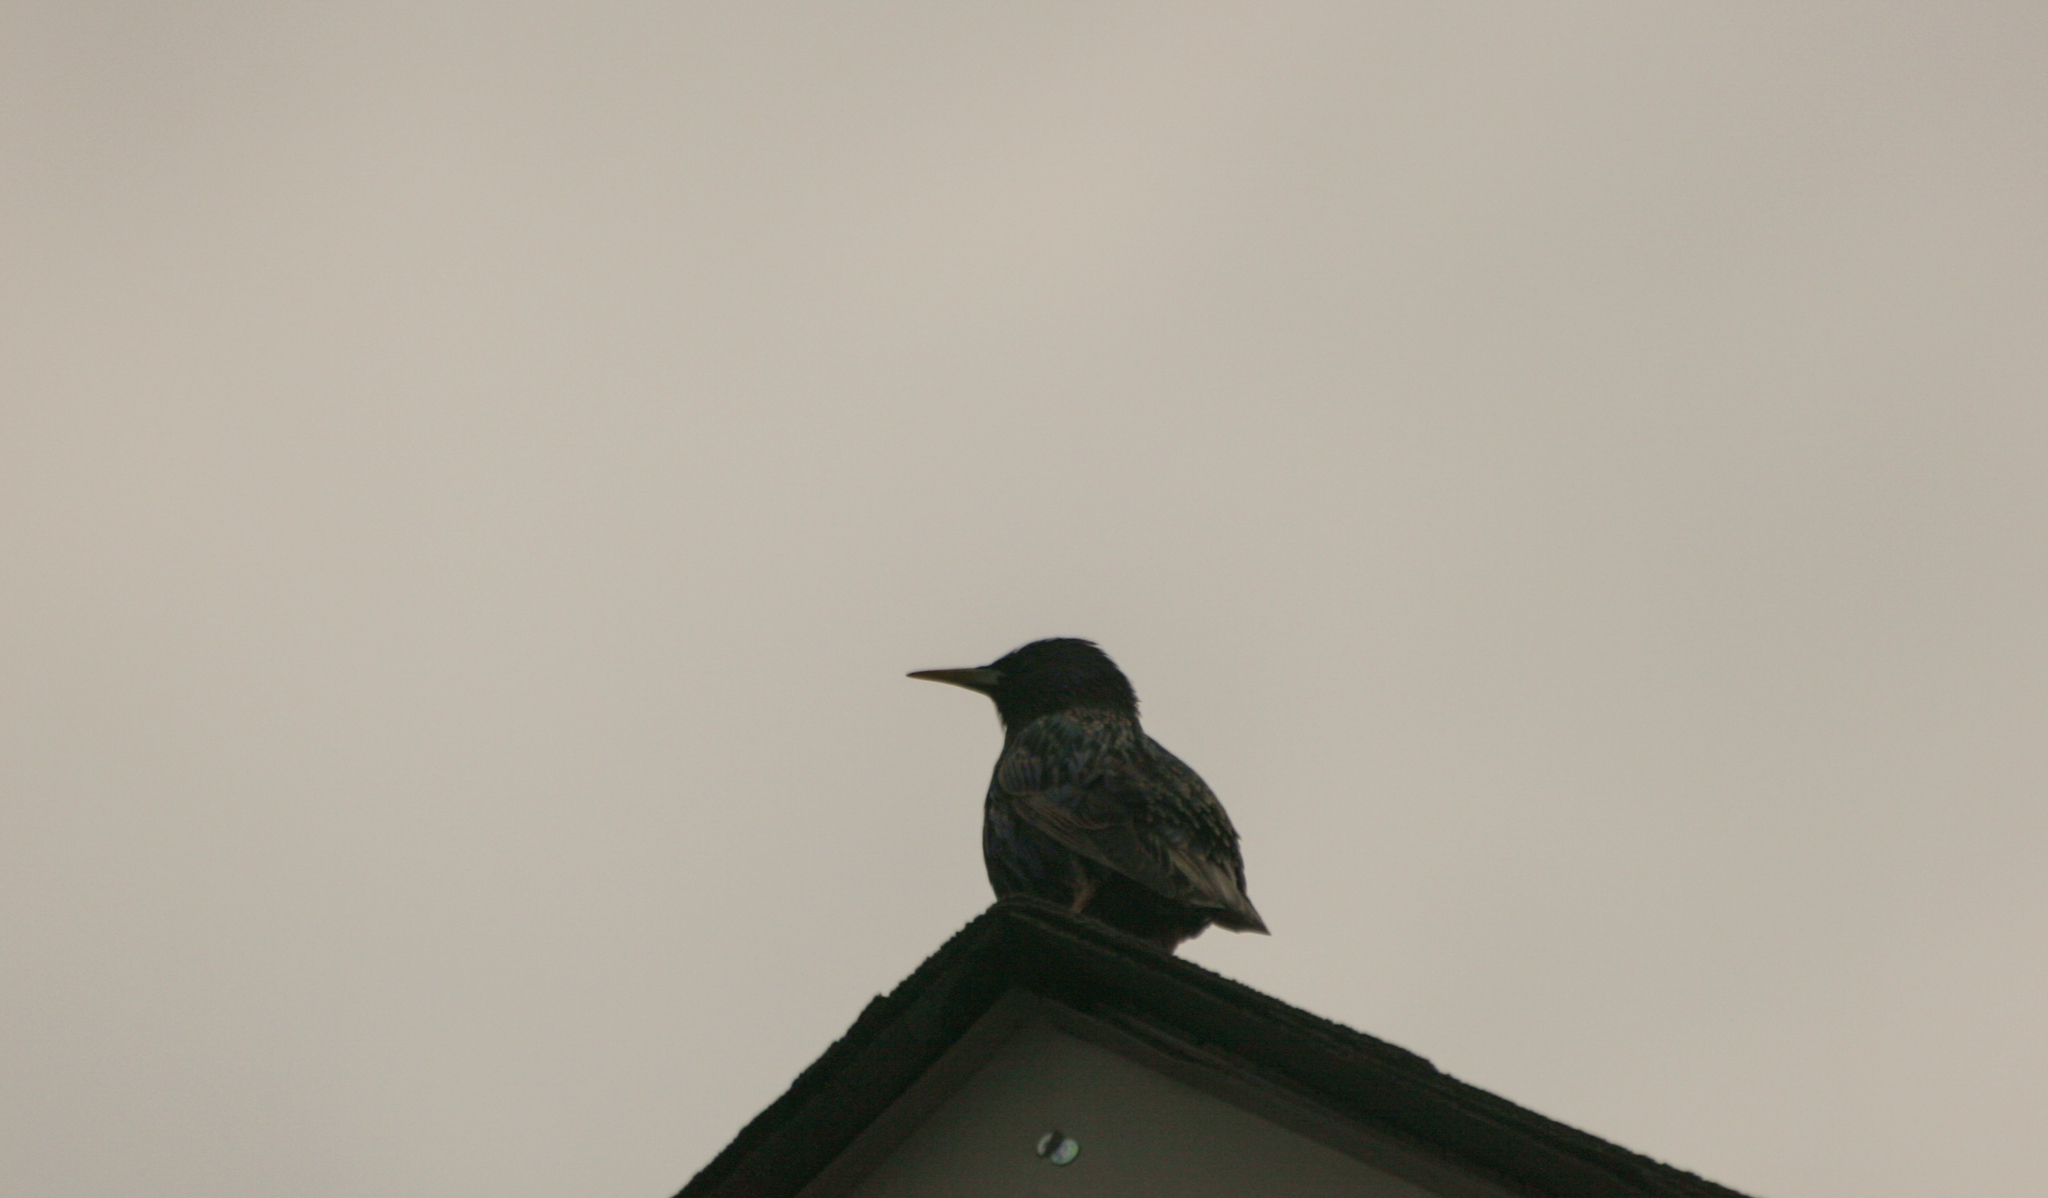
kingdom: Animalia
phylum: Chordata
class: Aves
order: Passeriformes
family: Sturnidae
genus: Sturnus
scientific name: Sturnus vulgaris
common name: Common starling
